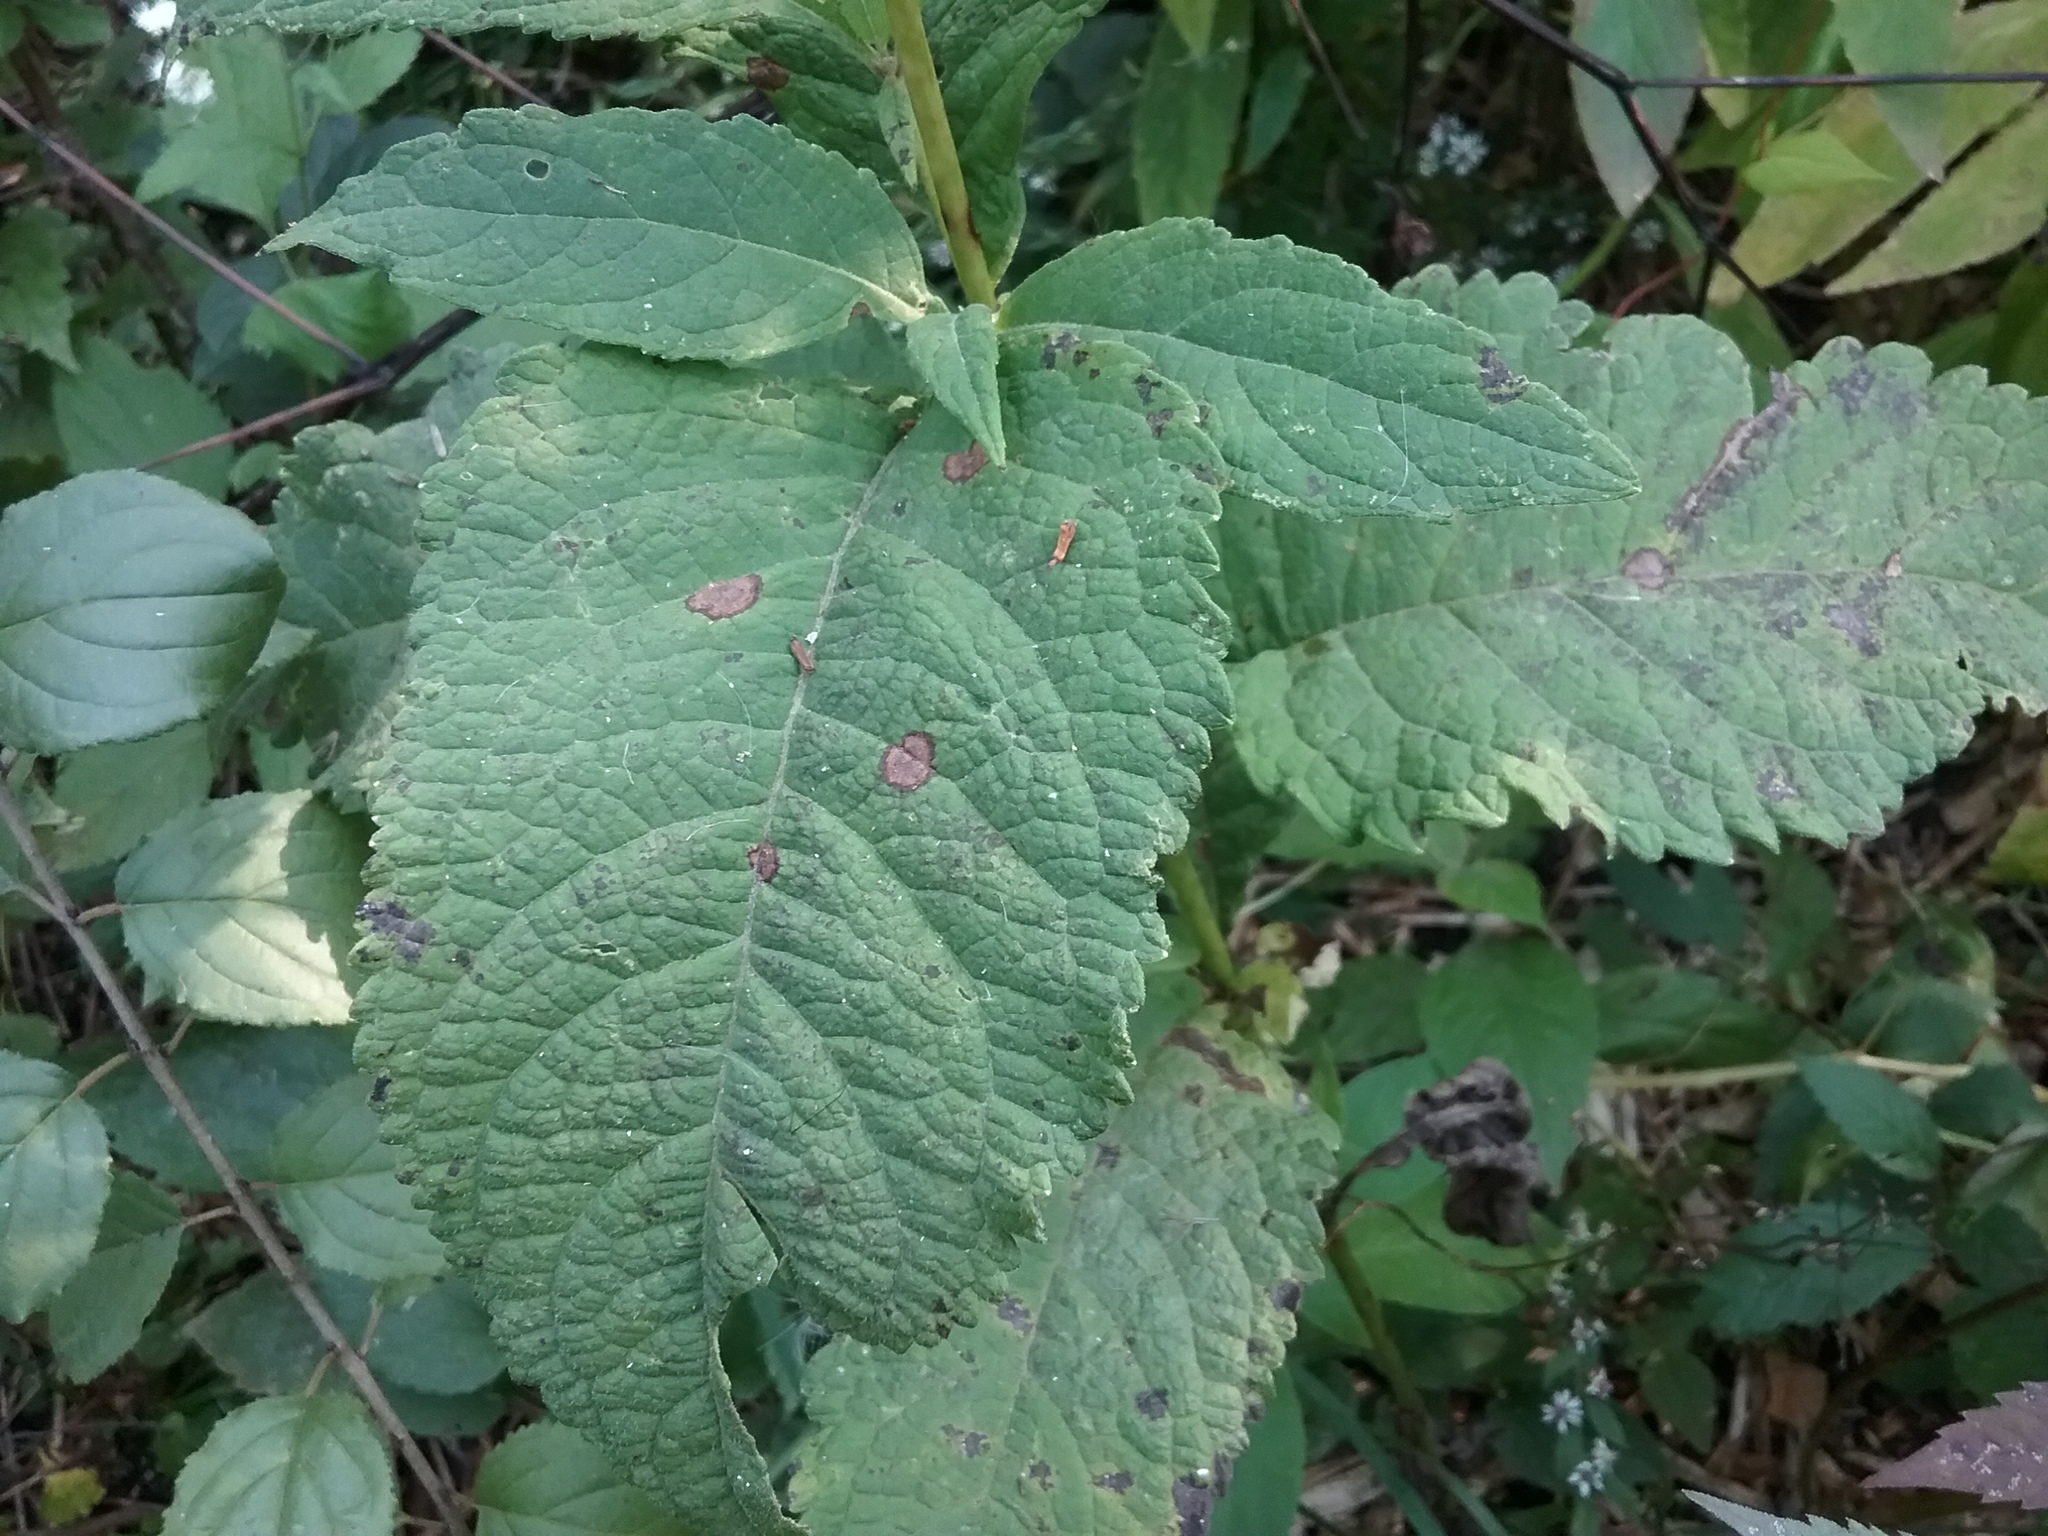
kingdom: Plantae
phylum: Tracheophyta
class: Magnoliopsida
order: Asterales
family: Asteraceae
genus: Eutrochium
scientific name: Eutrochium purpureum
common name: Gravelroot
